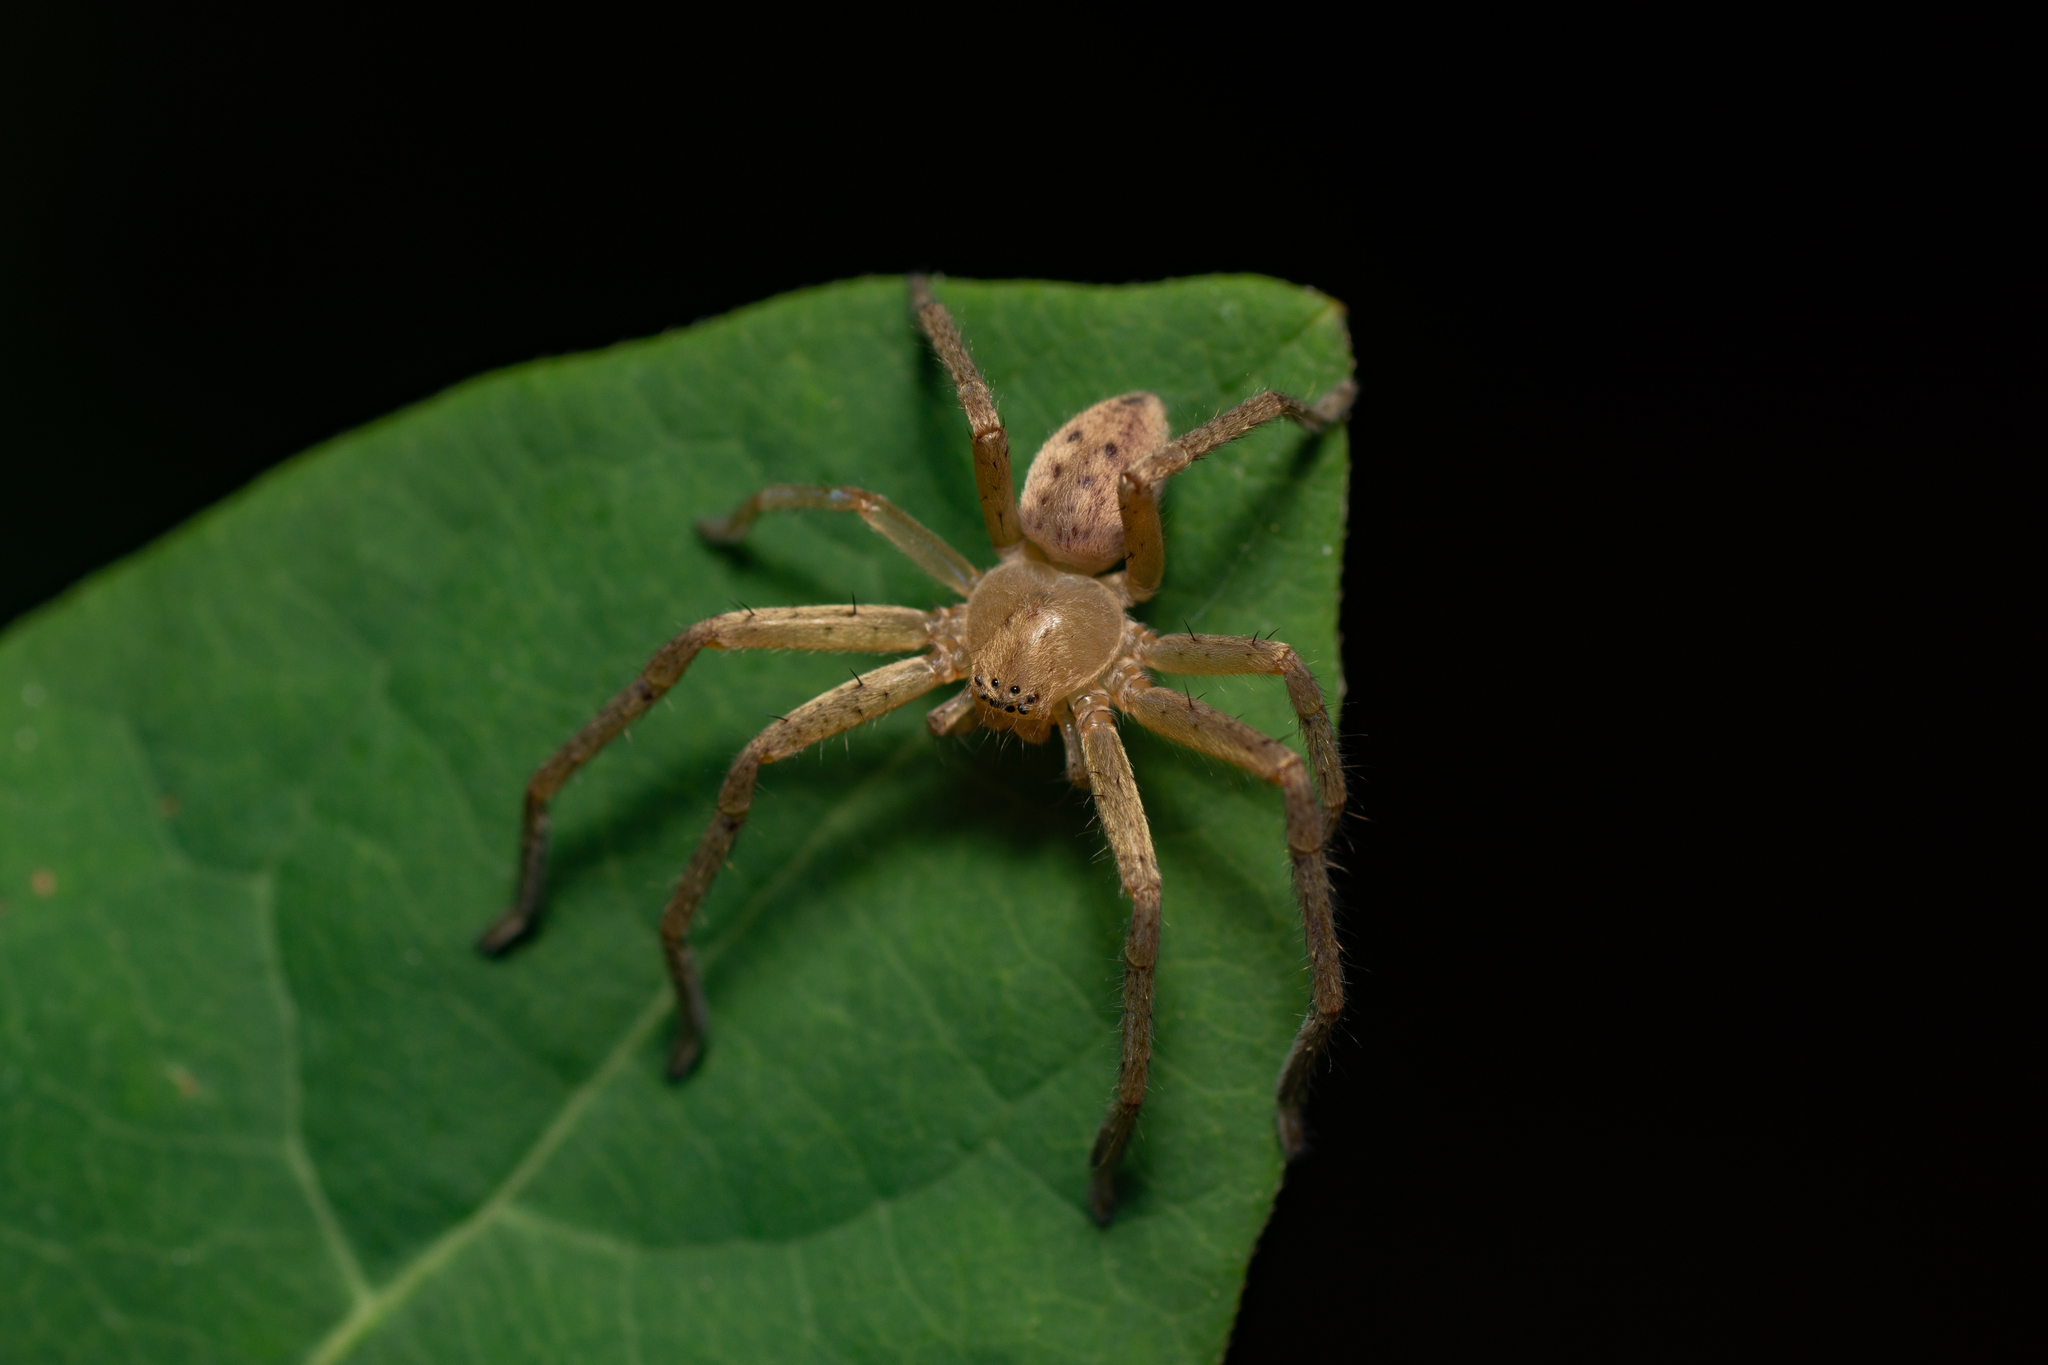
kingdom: Animalia
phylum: Arthropoda
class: Arachnida
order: Araneae
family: Sparassidae
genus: Olios
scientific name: Olios argelasius
